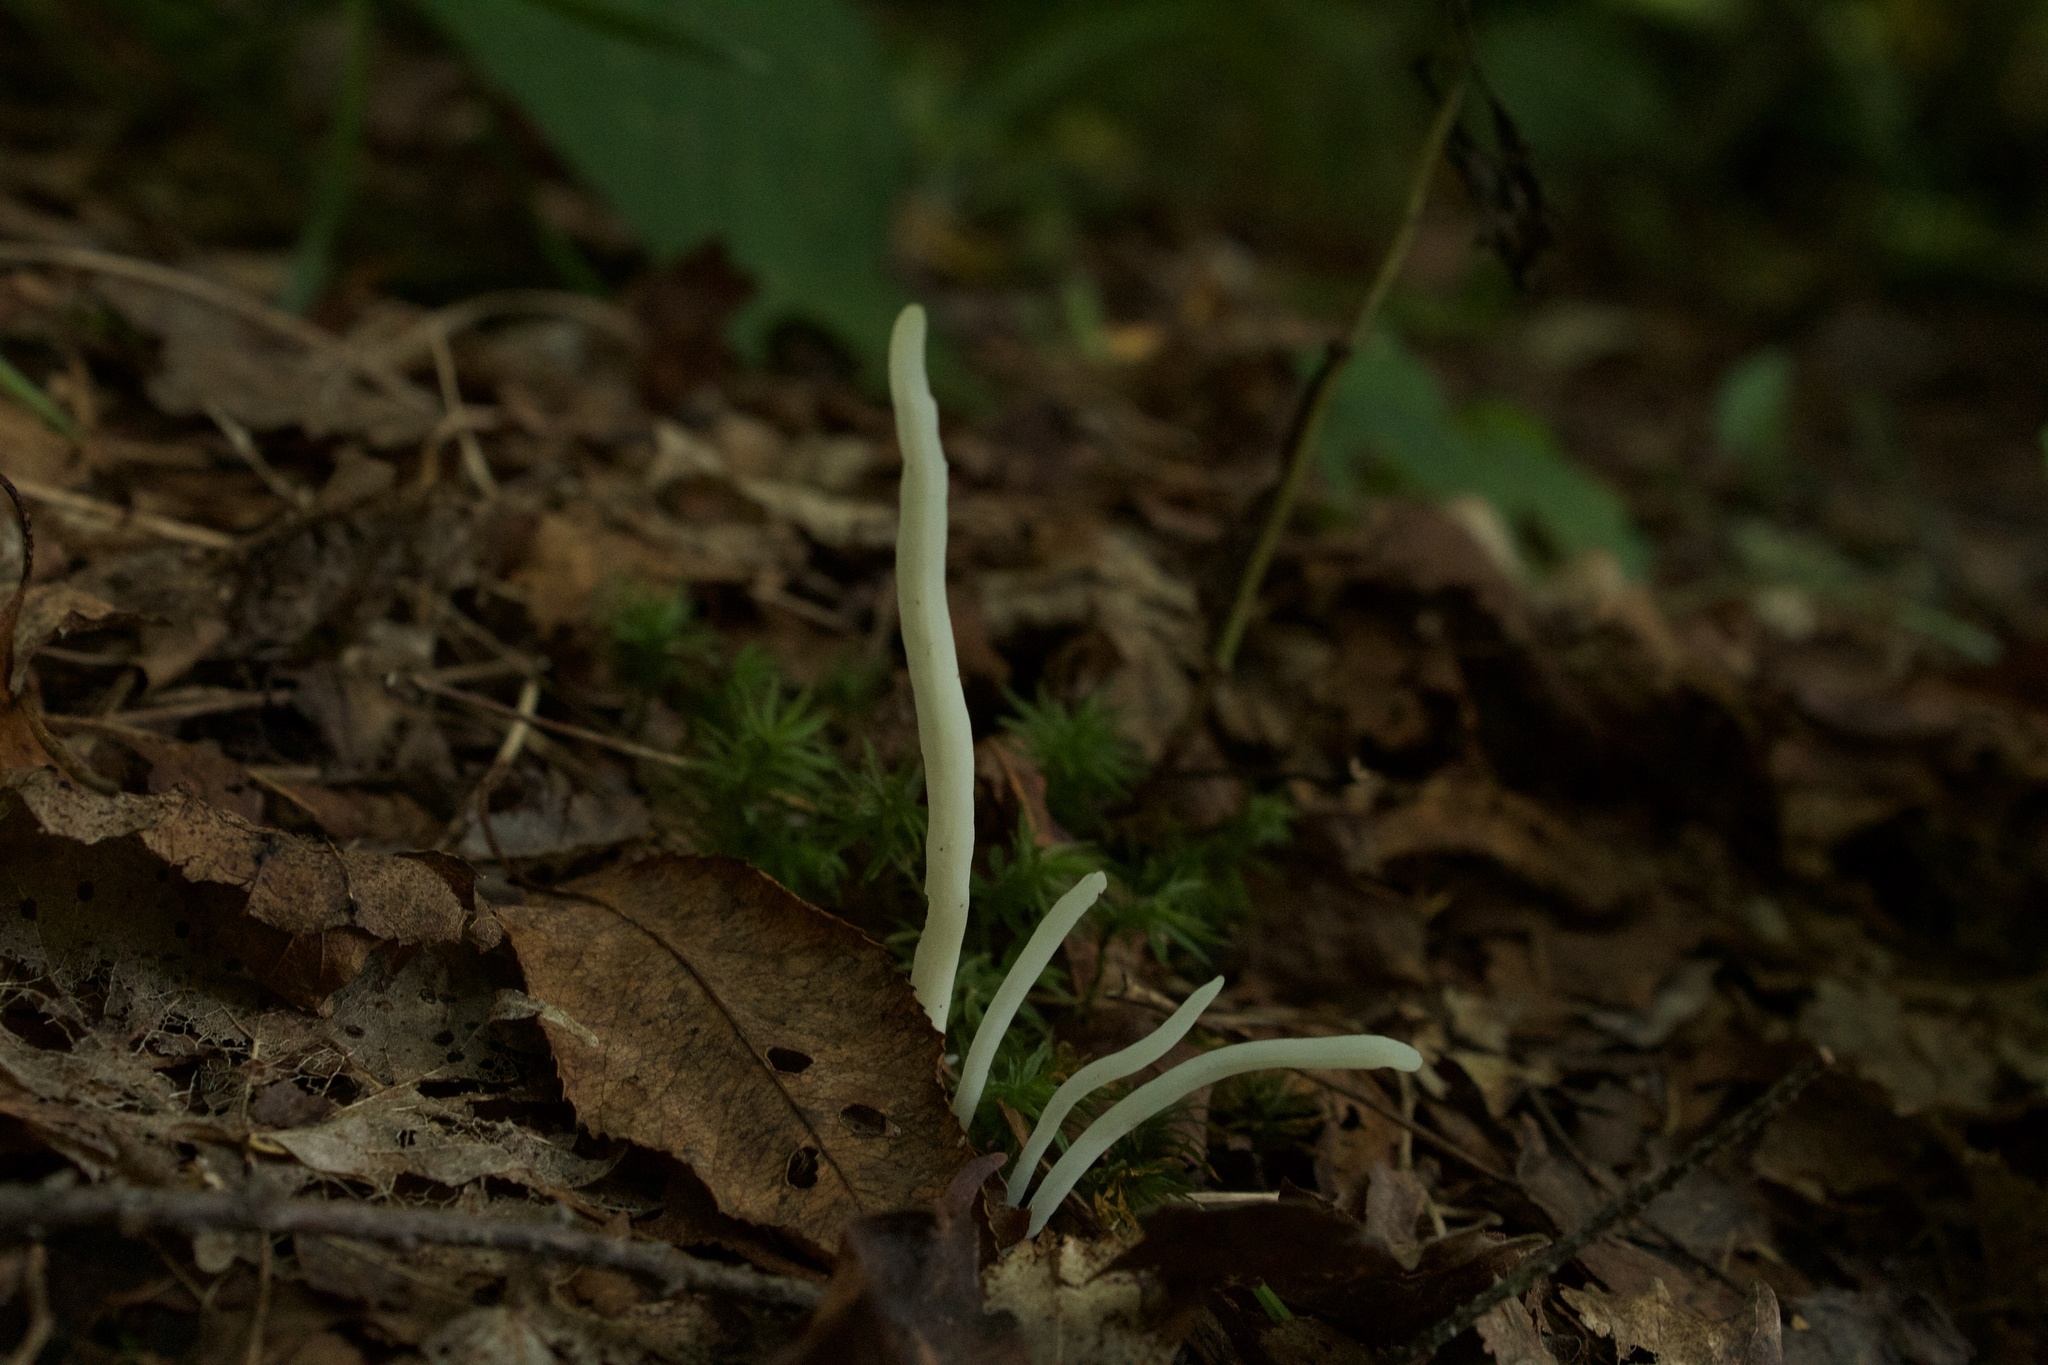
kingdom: Fungi
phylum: Basidiomycota
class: Agaricomycetes
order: Agaricales
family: Clavariaceae
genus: Clavaria
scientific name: Clavaria fragilis
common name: White spindles
